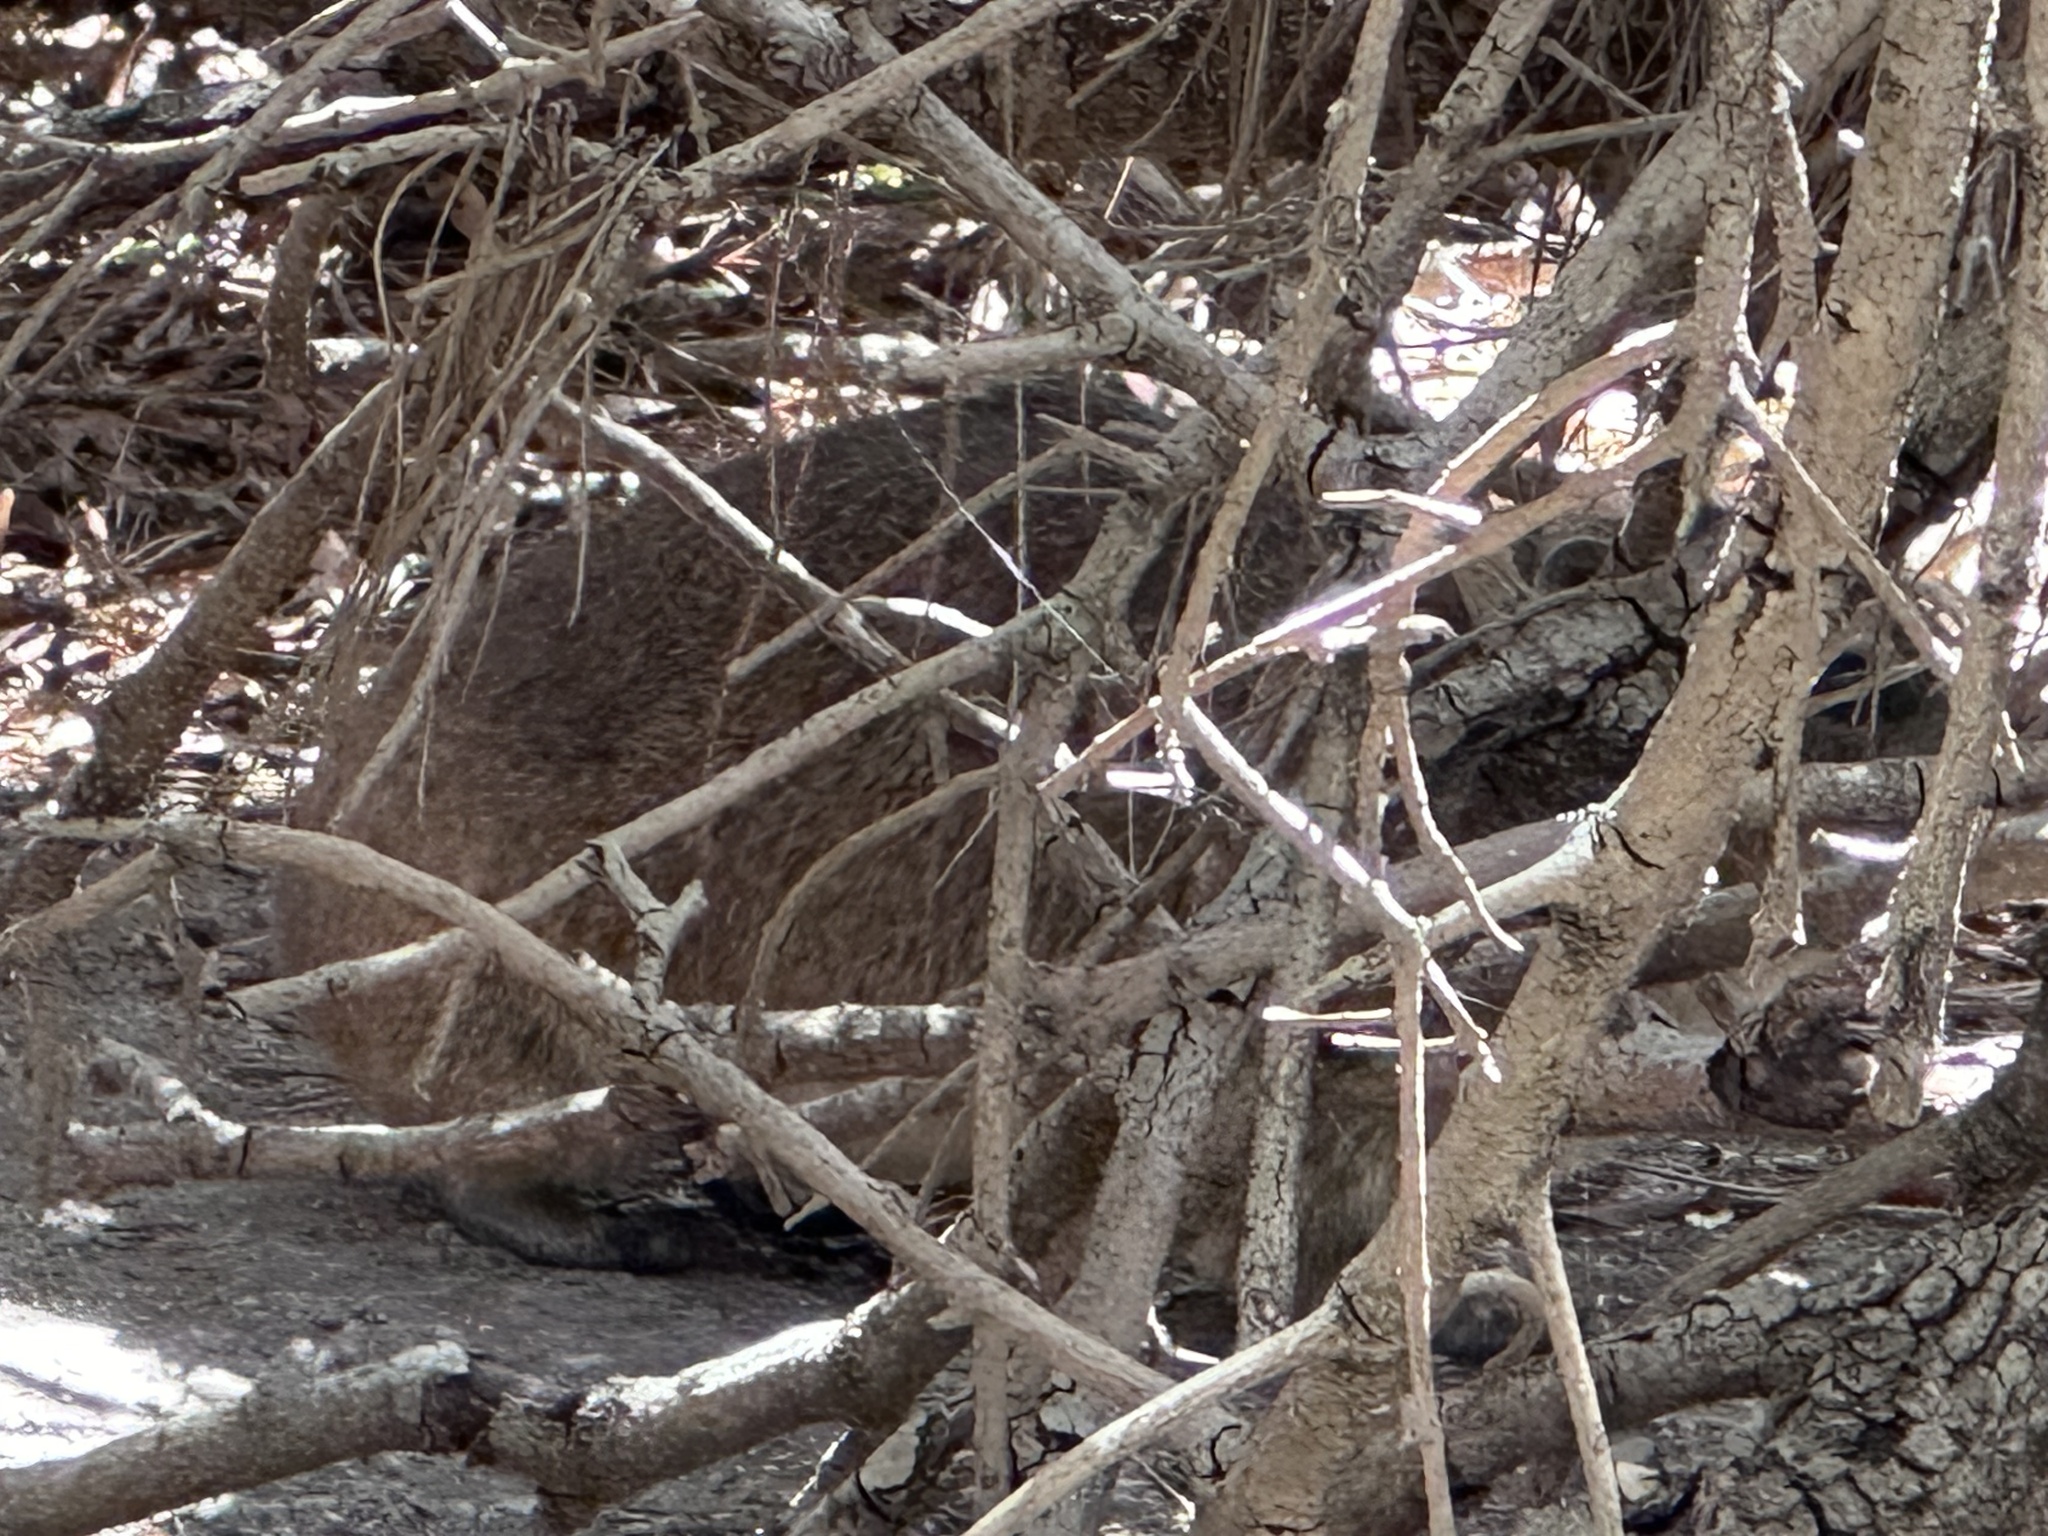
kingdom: Animalia
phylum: Chordata
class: Mammalia
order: Hyracoidea
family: Procaviidae
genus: Procavia
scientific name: Procavia capensis
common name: Rock hyrax
